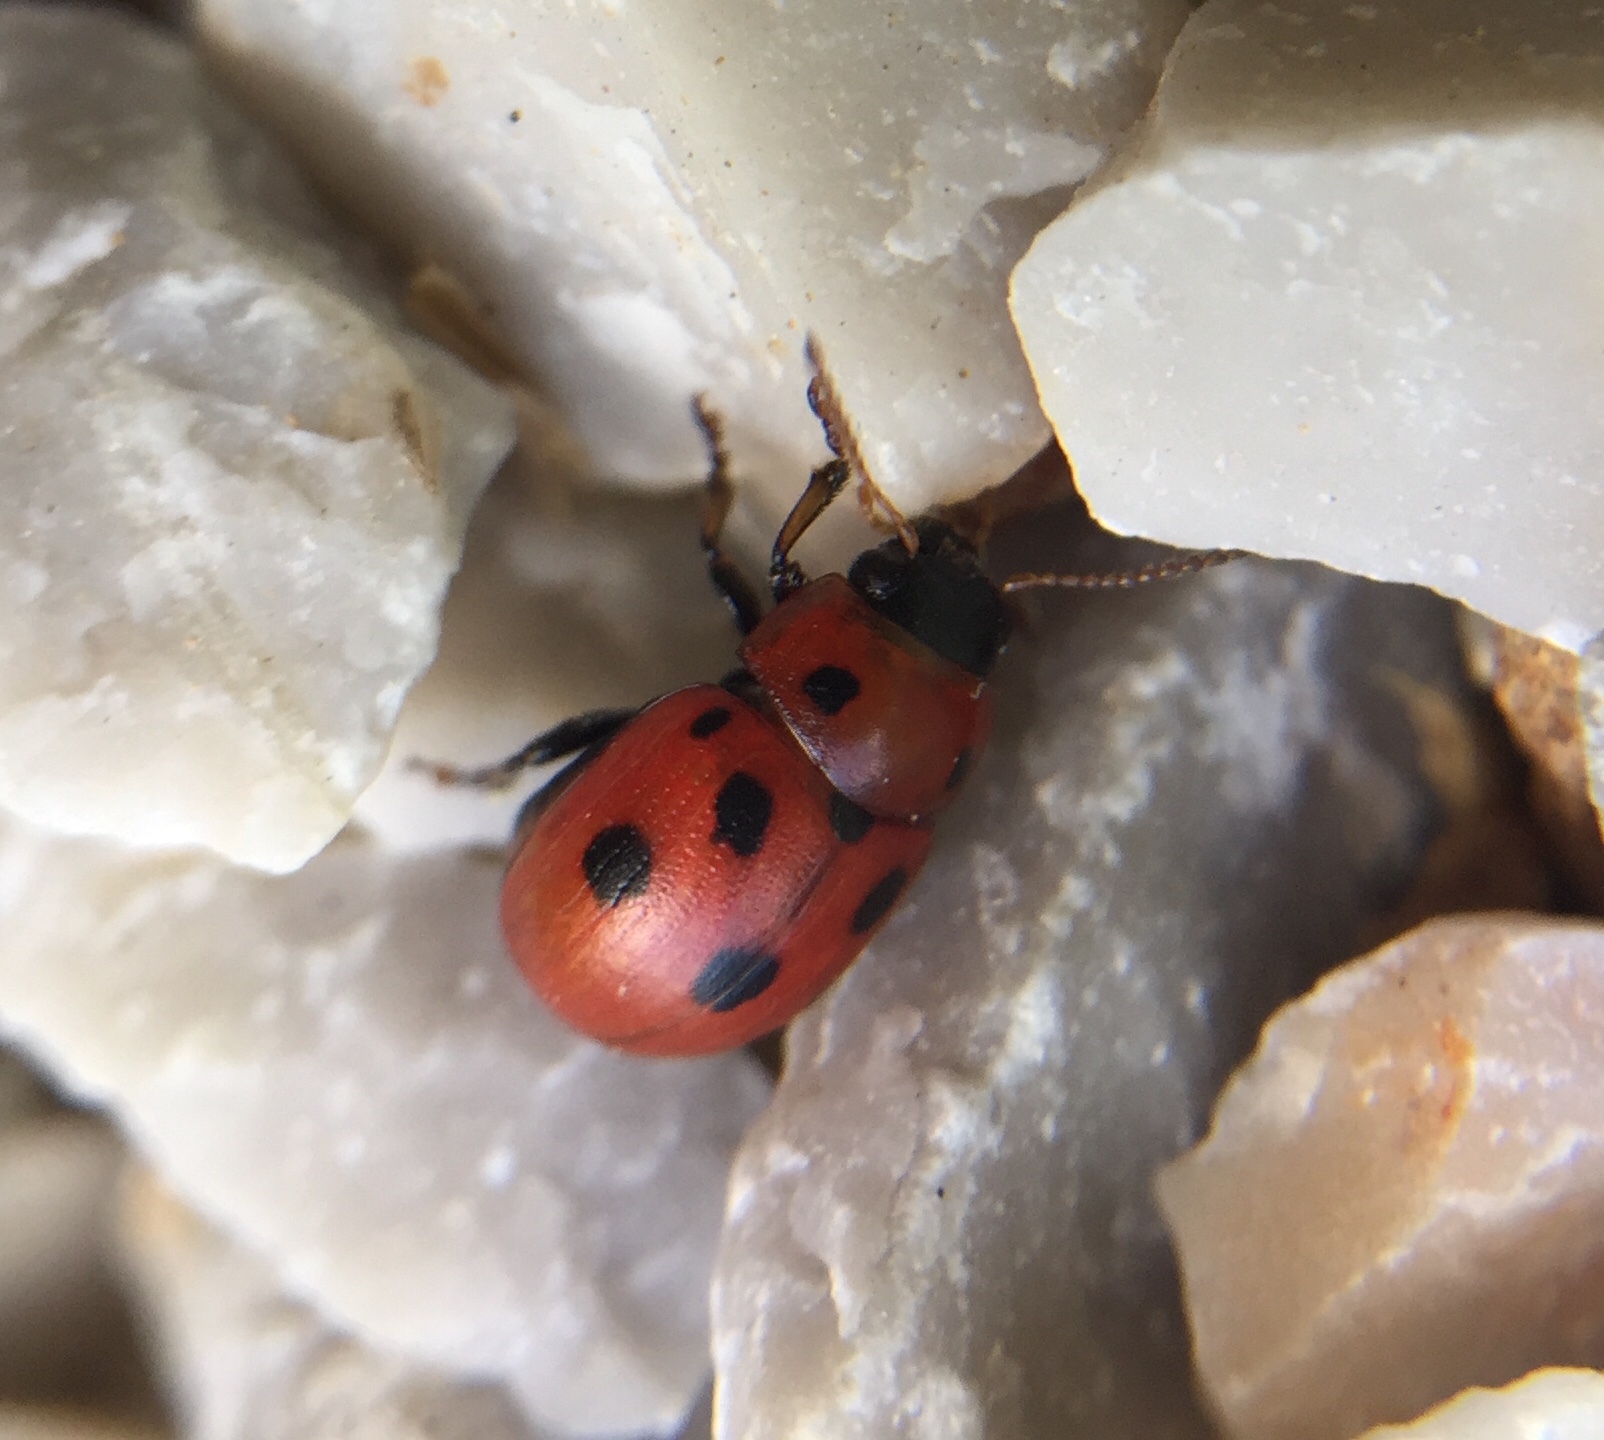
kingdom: Animalia
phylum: Arthropoda
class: Insecta
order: Coleoptera
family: Chrysomelidae
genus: Gonioctena
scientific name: Gonioctena fornicata
